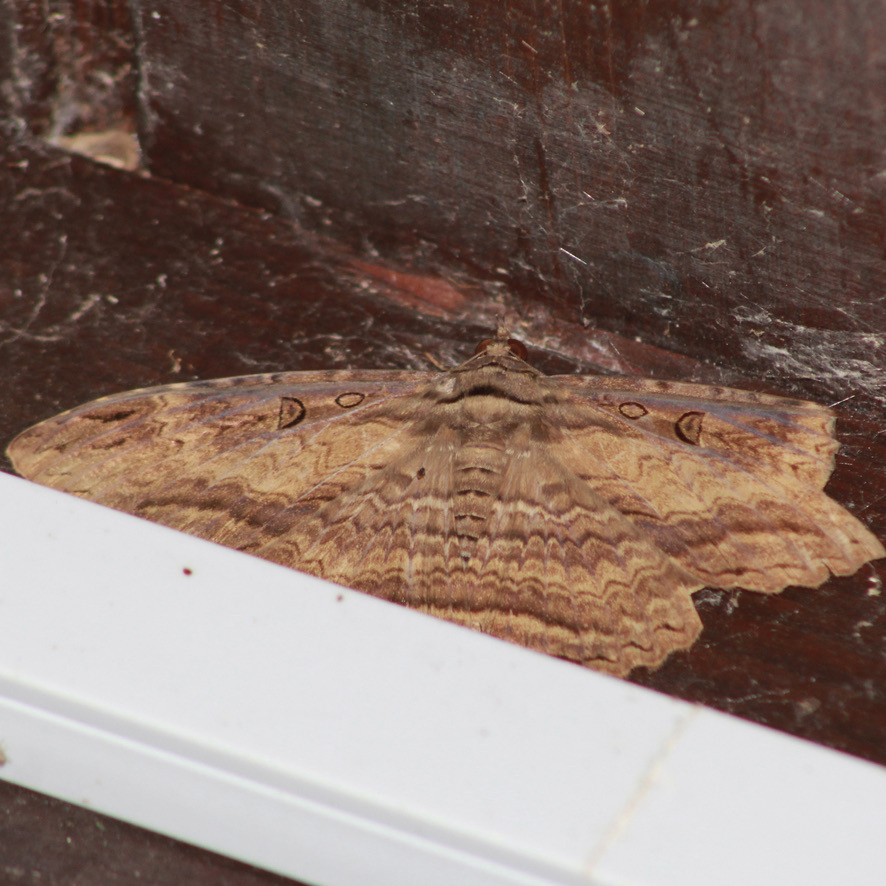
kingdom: Animalia
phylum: Arthropoda
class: Insecta
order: Lepidoptera
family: Erebidae
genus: Feigeria
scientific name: Feigeria buteo
